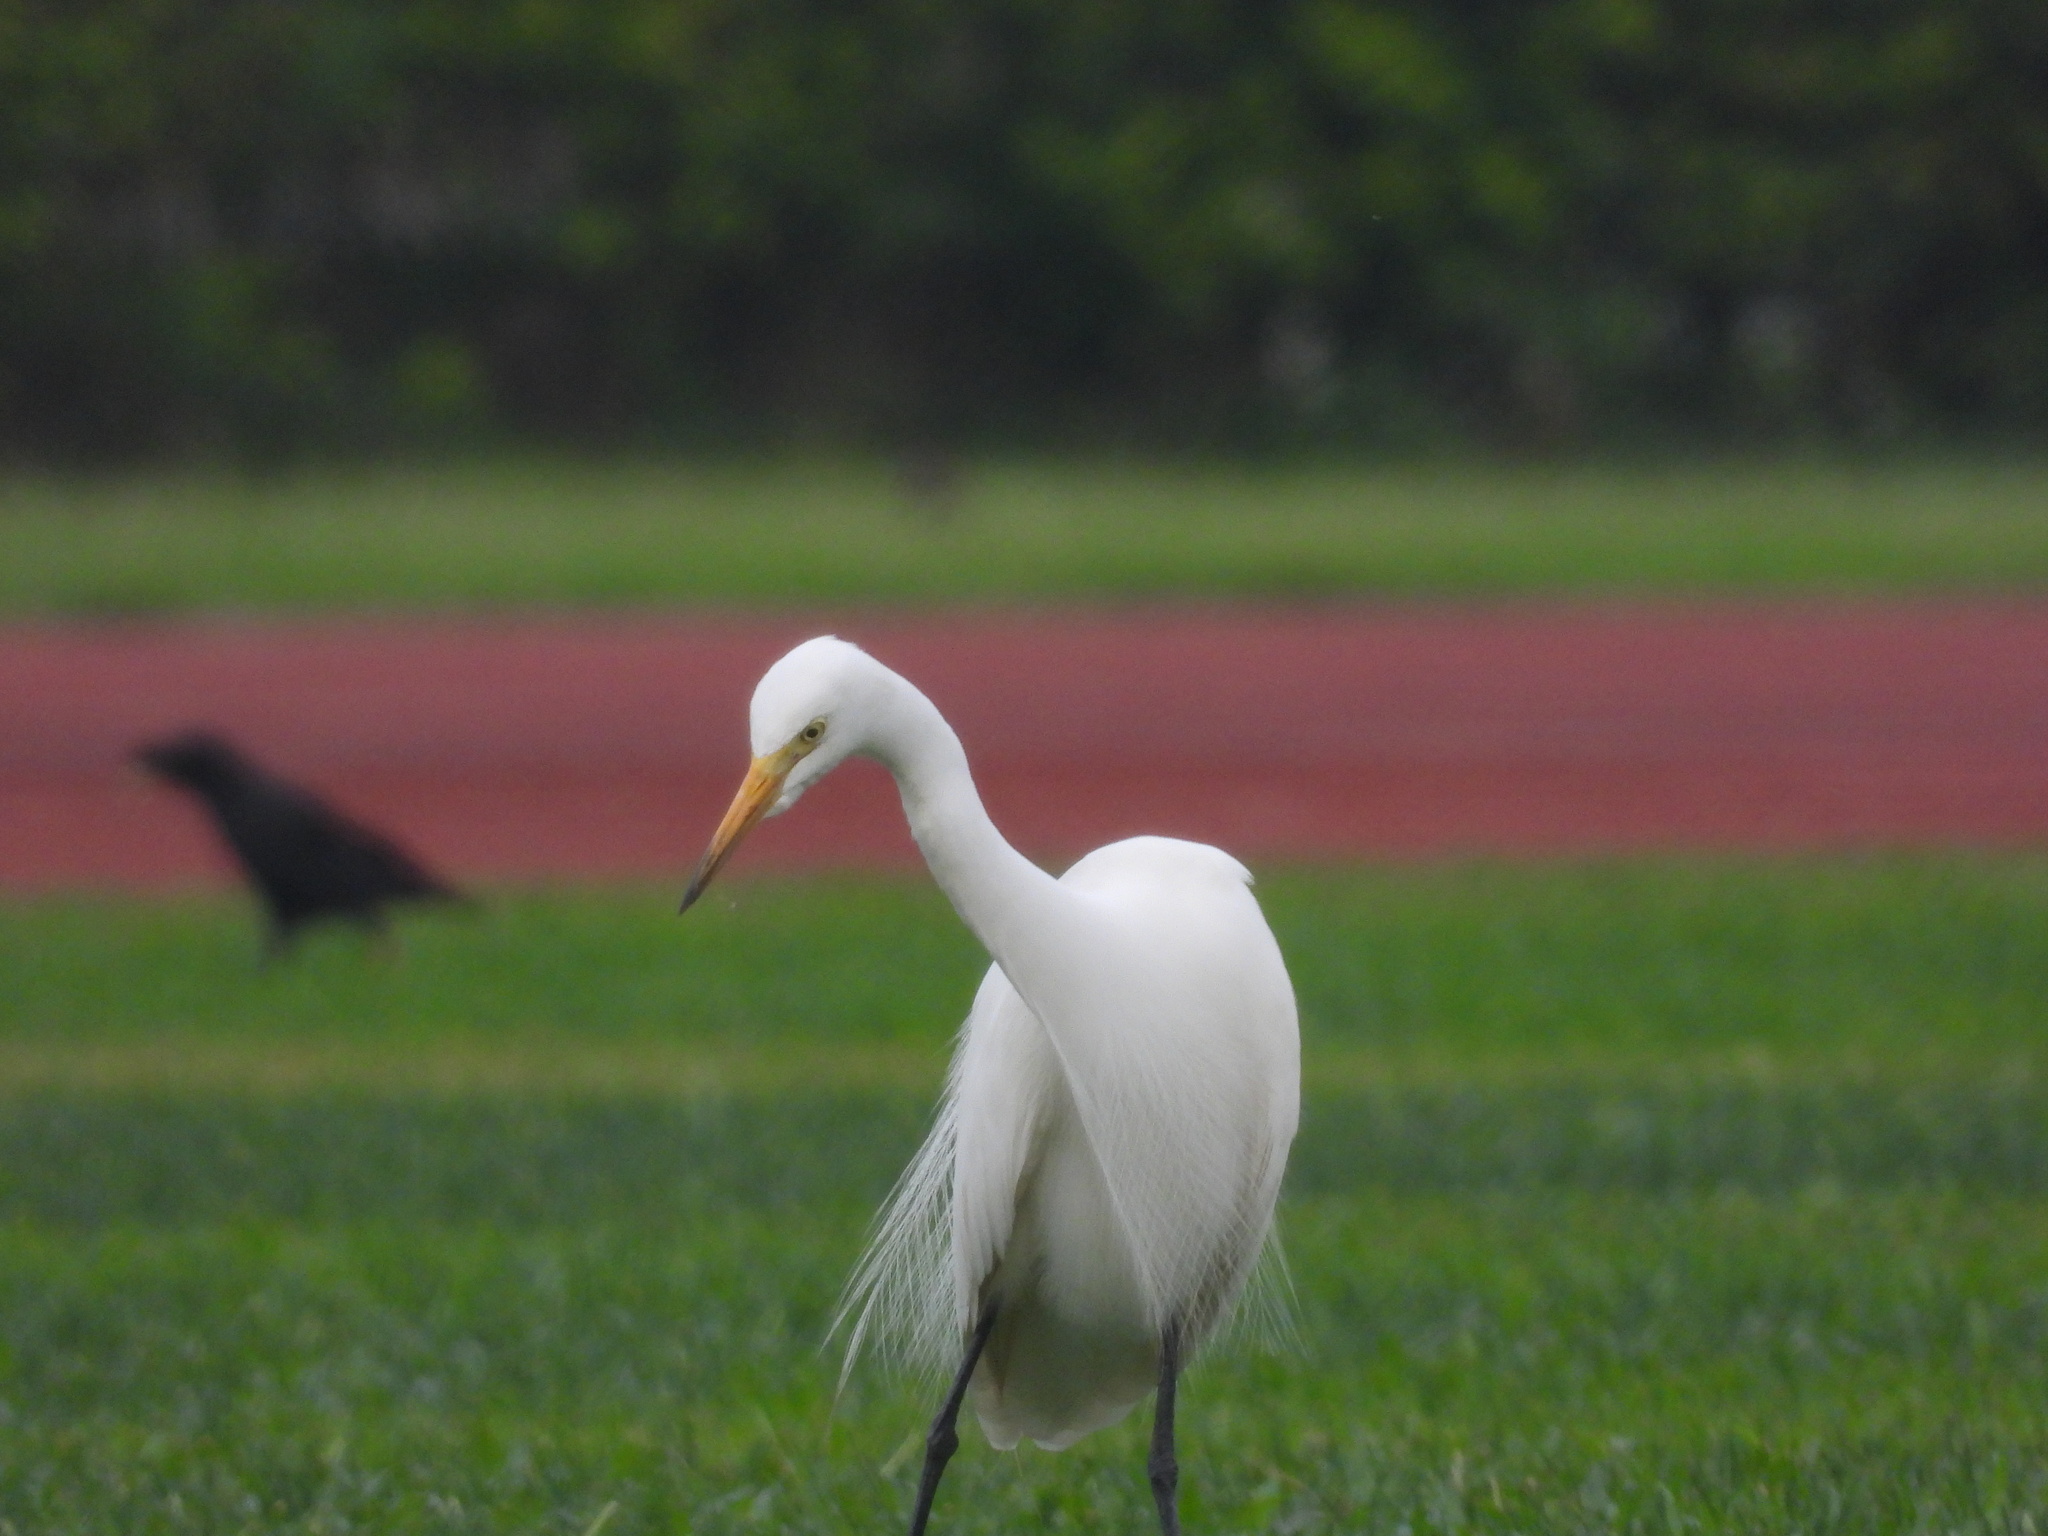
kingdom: Animalia
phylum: Chordata
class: Aves
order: Pelecaniformes
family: Ardeidae
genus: Egretta
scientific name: Egretta intermedia
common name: Intermediate egret
